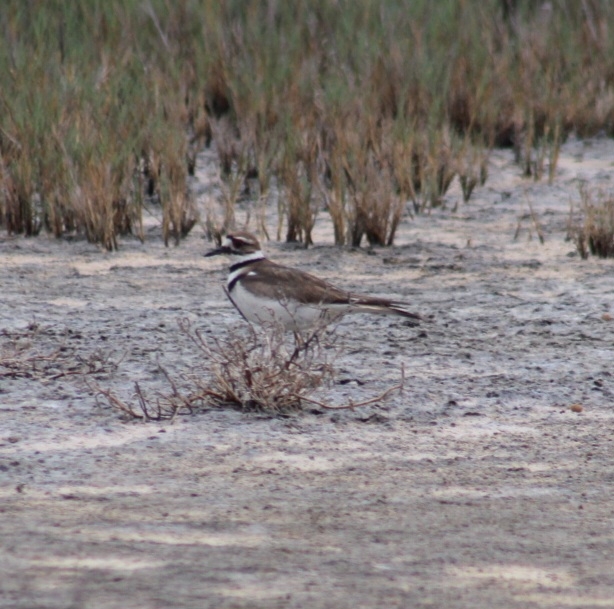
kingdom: Animalia
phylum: Chordata
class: Aves
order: Charadriiformes
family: Charadriidae
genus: Charadrius
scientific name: Charadrius vociferus
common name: Killdeer
